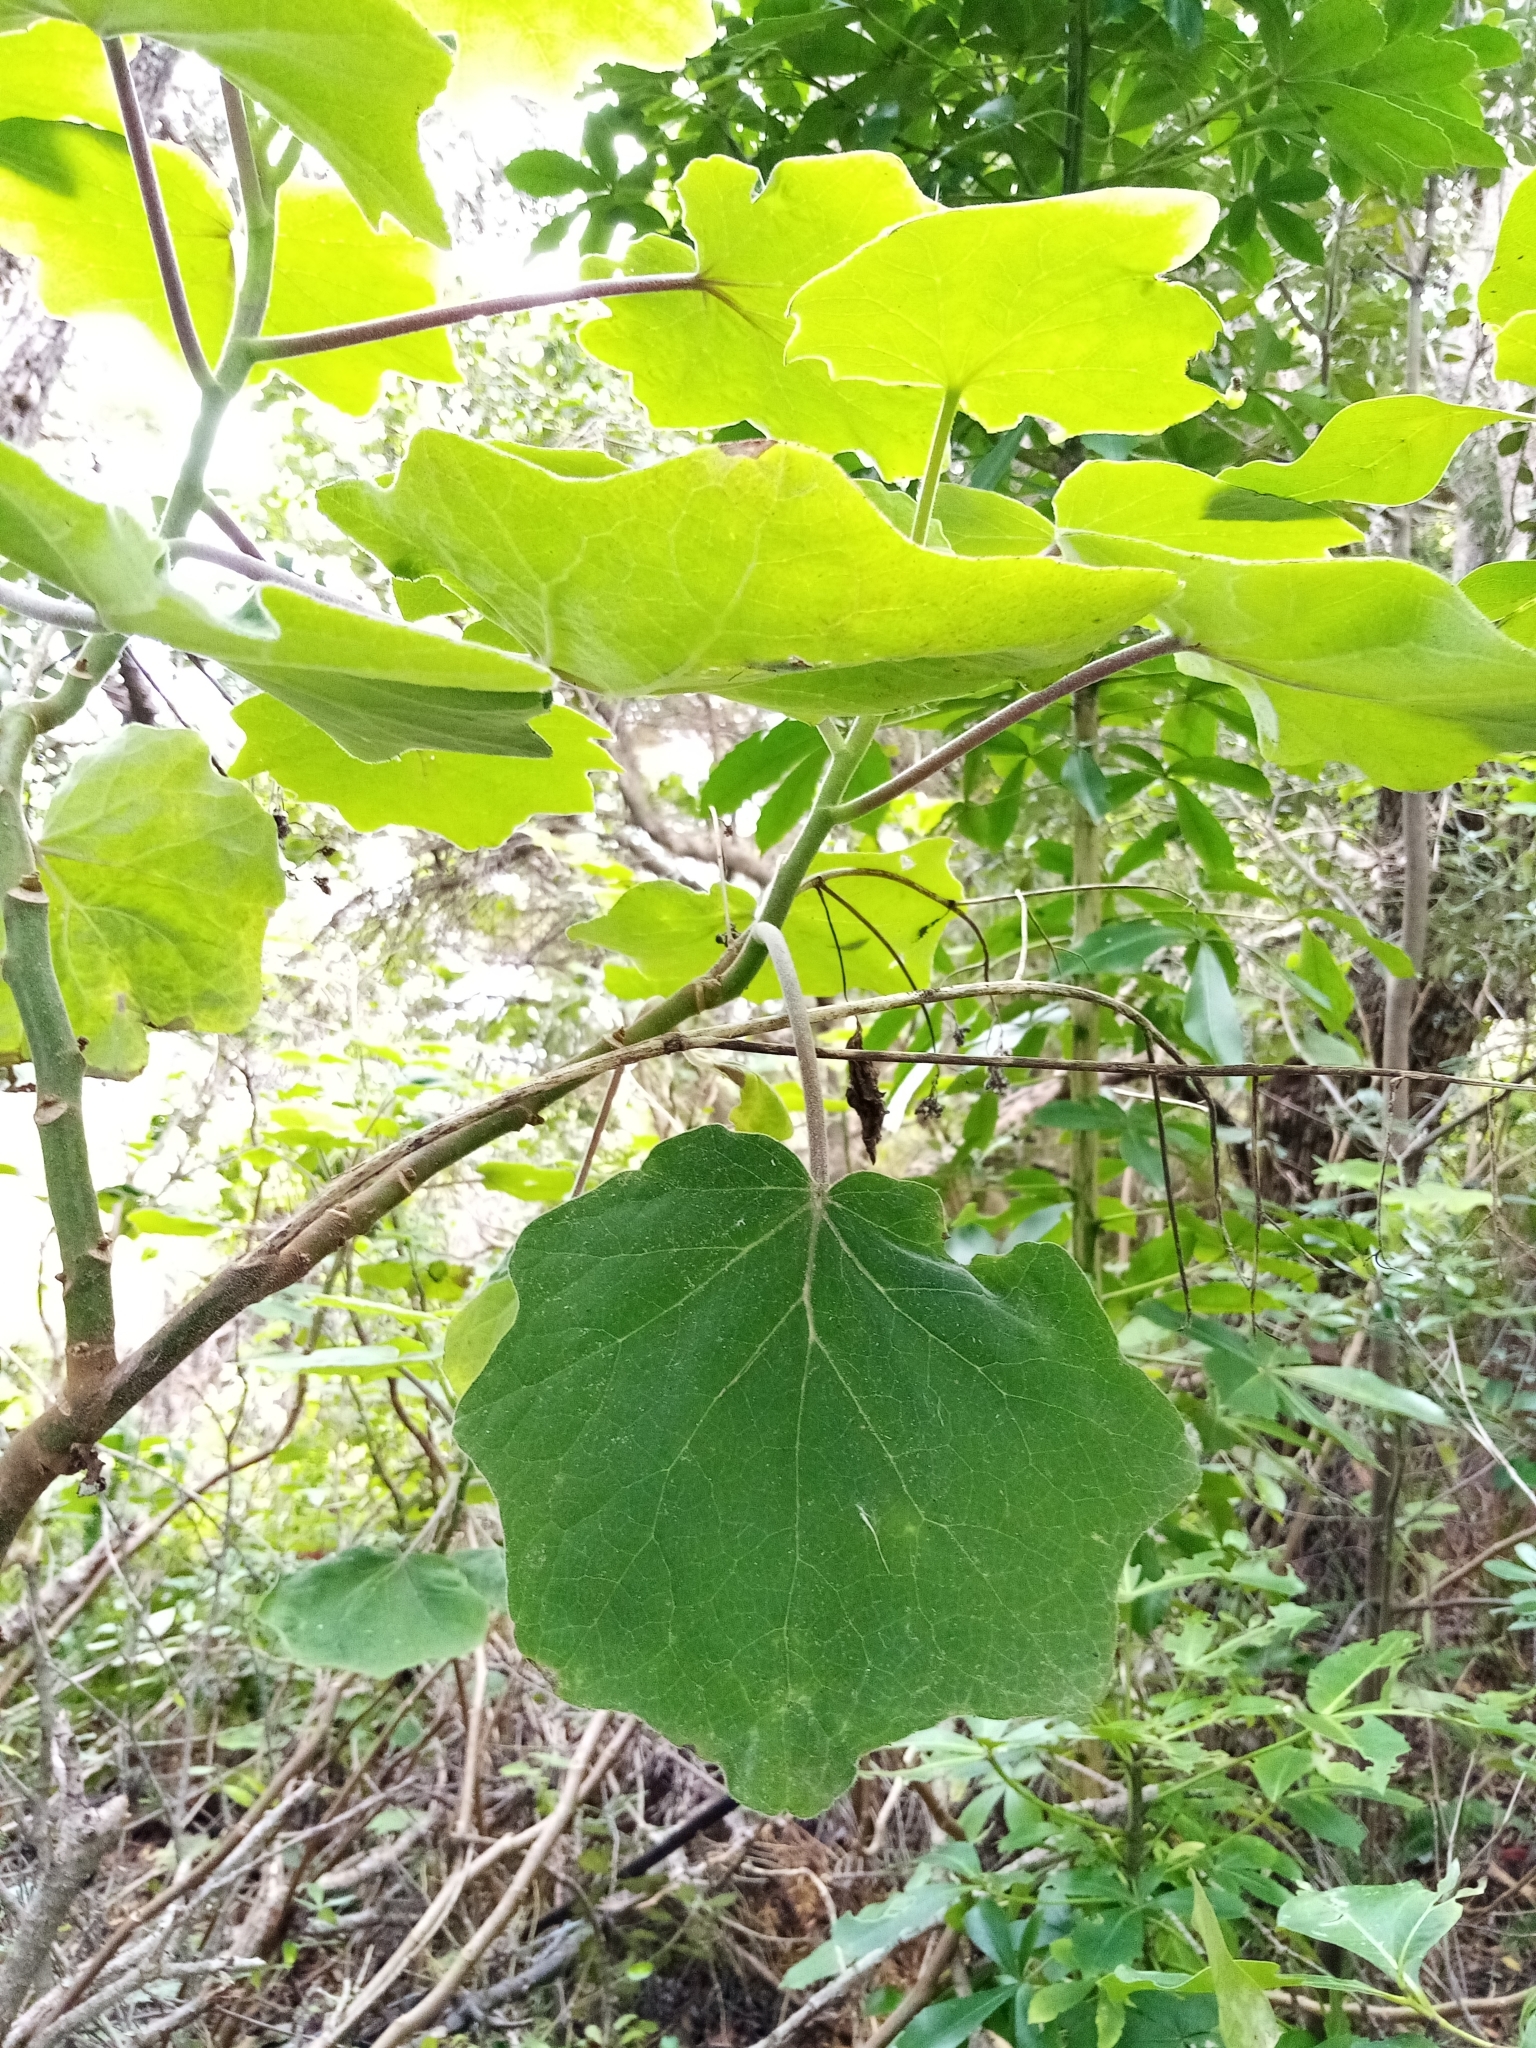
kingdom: Plantae
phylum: Tracheophyta
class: Magnoliopsida
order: Asterales
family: Asteraceae
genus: Roldana
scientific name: Roldana petasitis
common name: California-geranium
